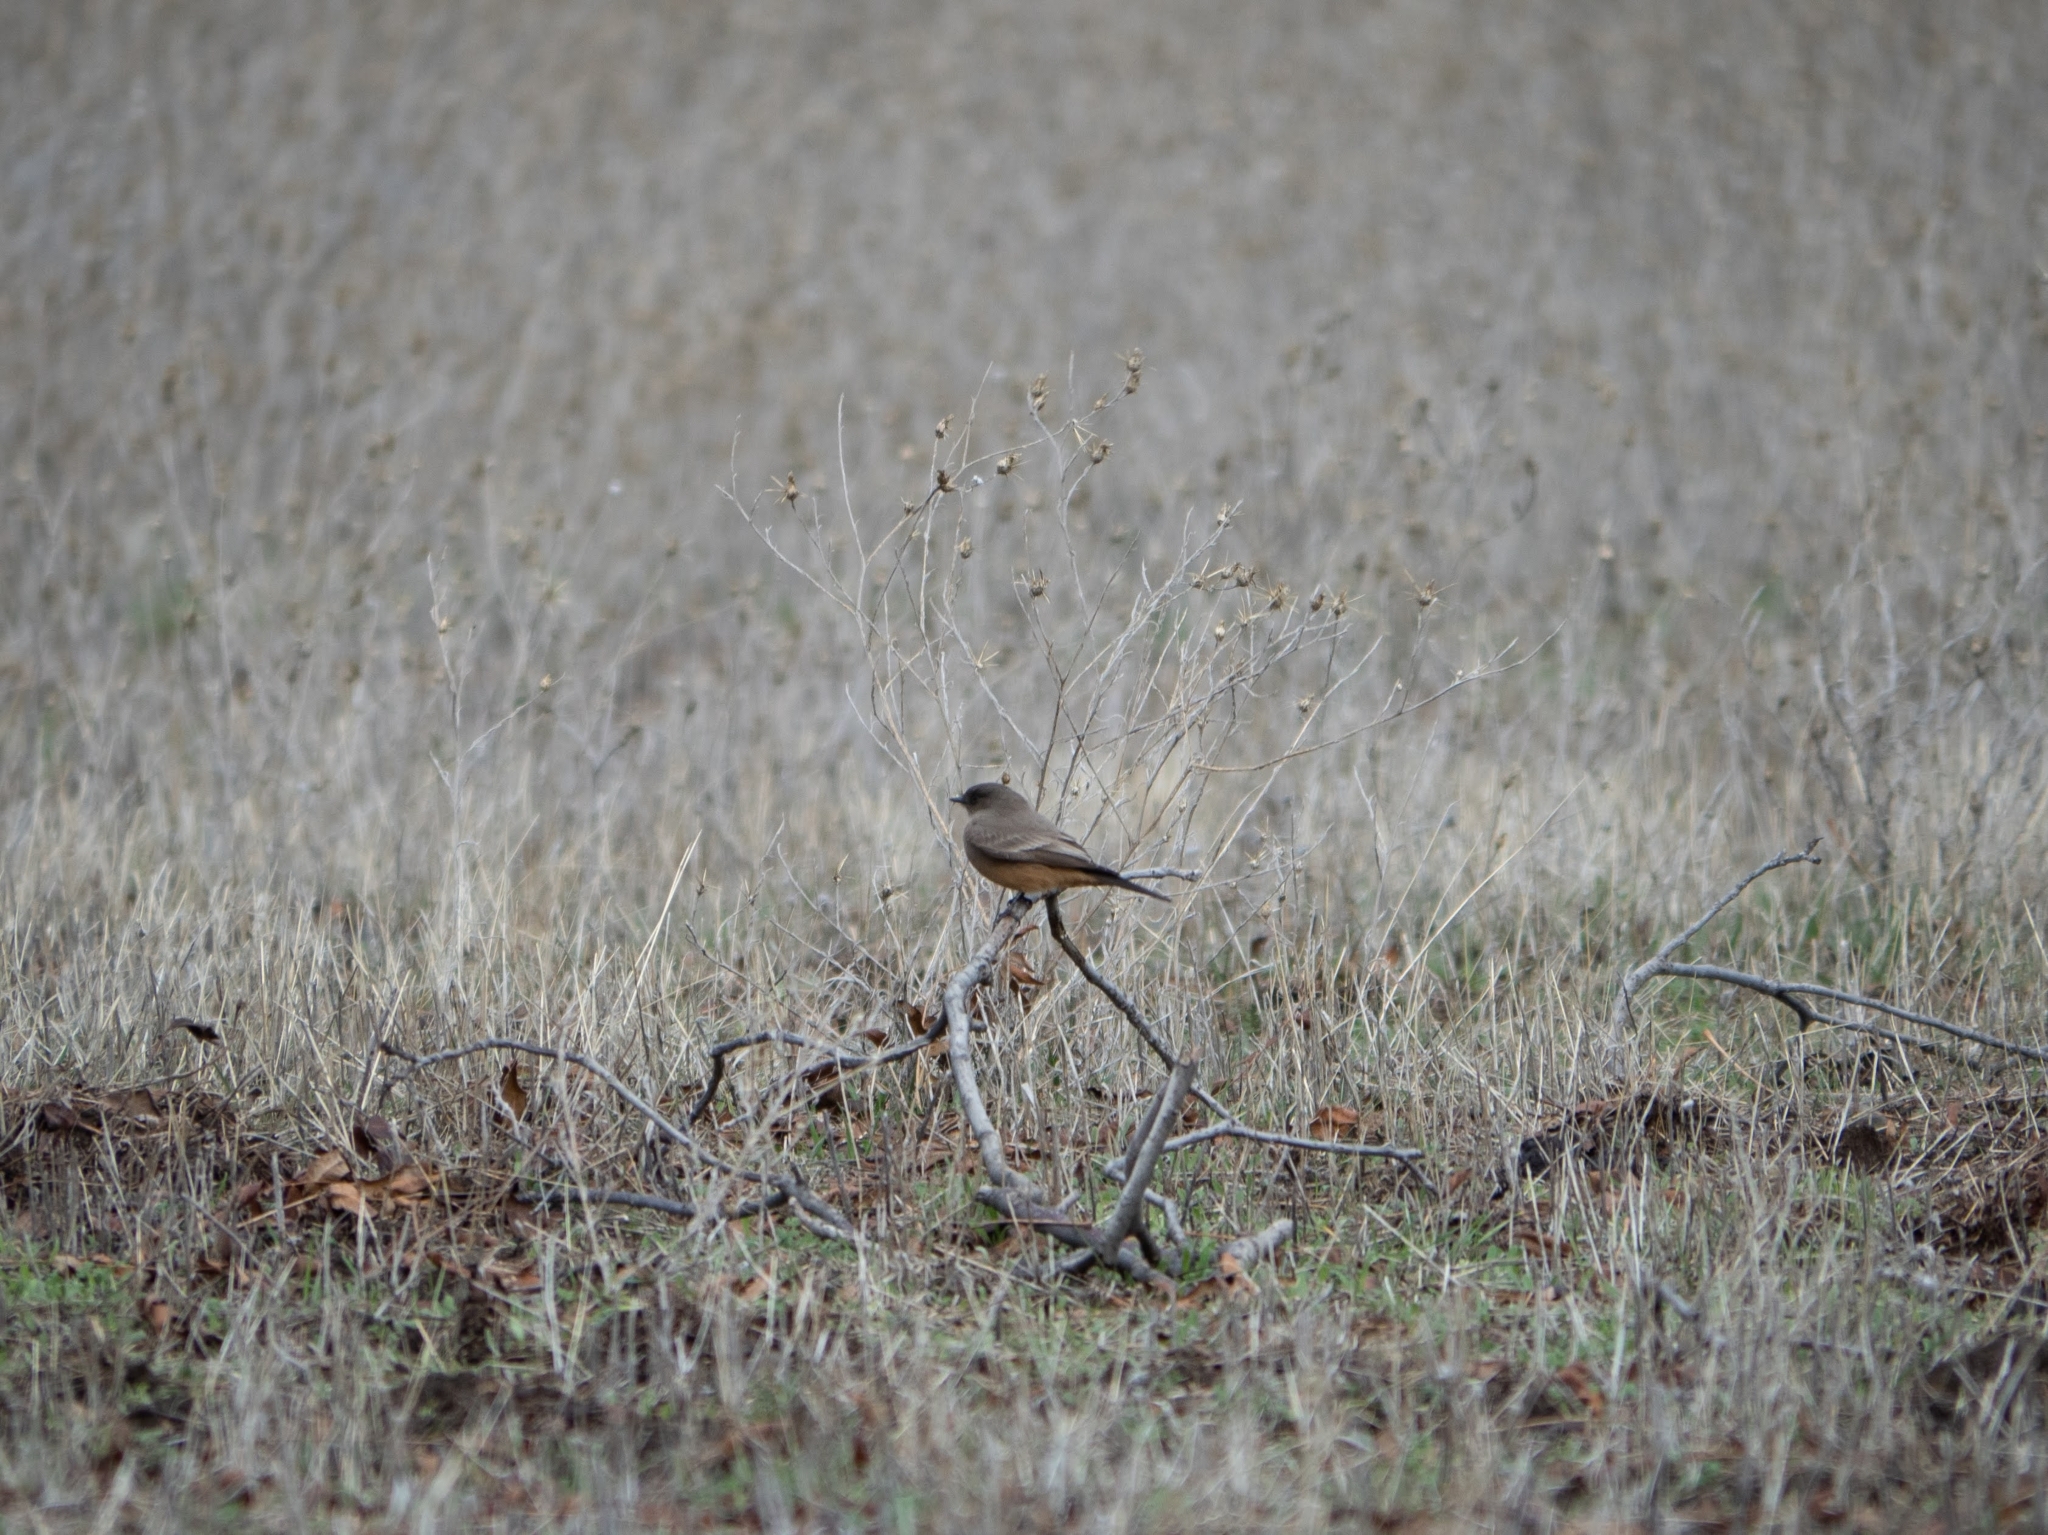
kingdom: Animalia
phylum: Chordata
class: Aves
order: Passeriformes
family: Tyrannidae
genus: Sayornis
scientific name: Sayornis saya
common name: Say's phoebe
